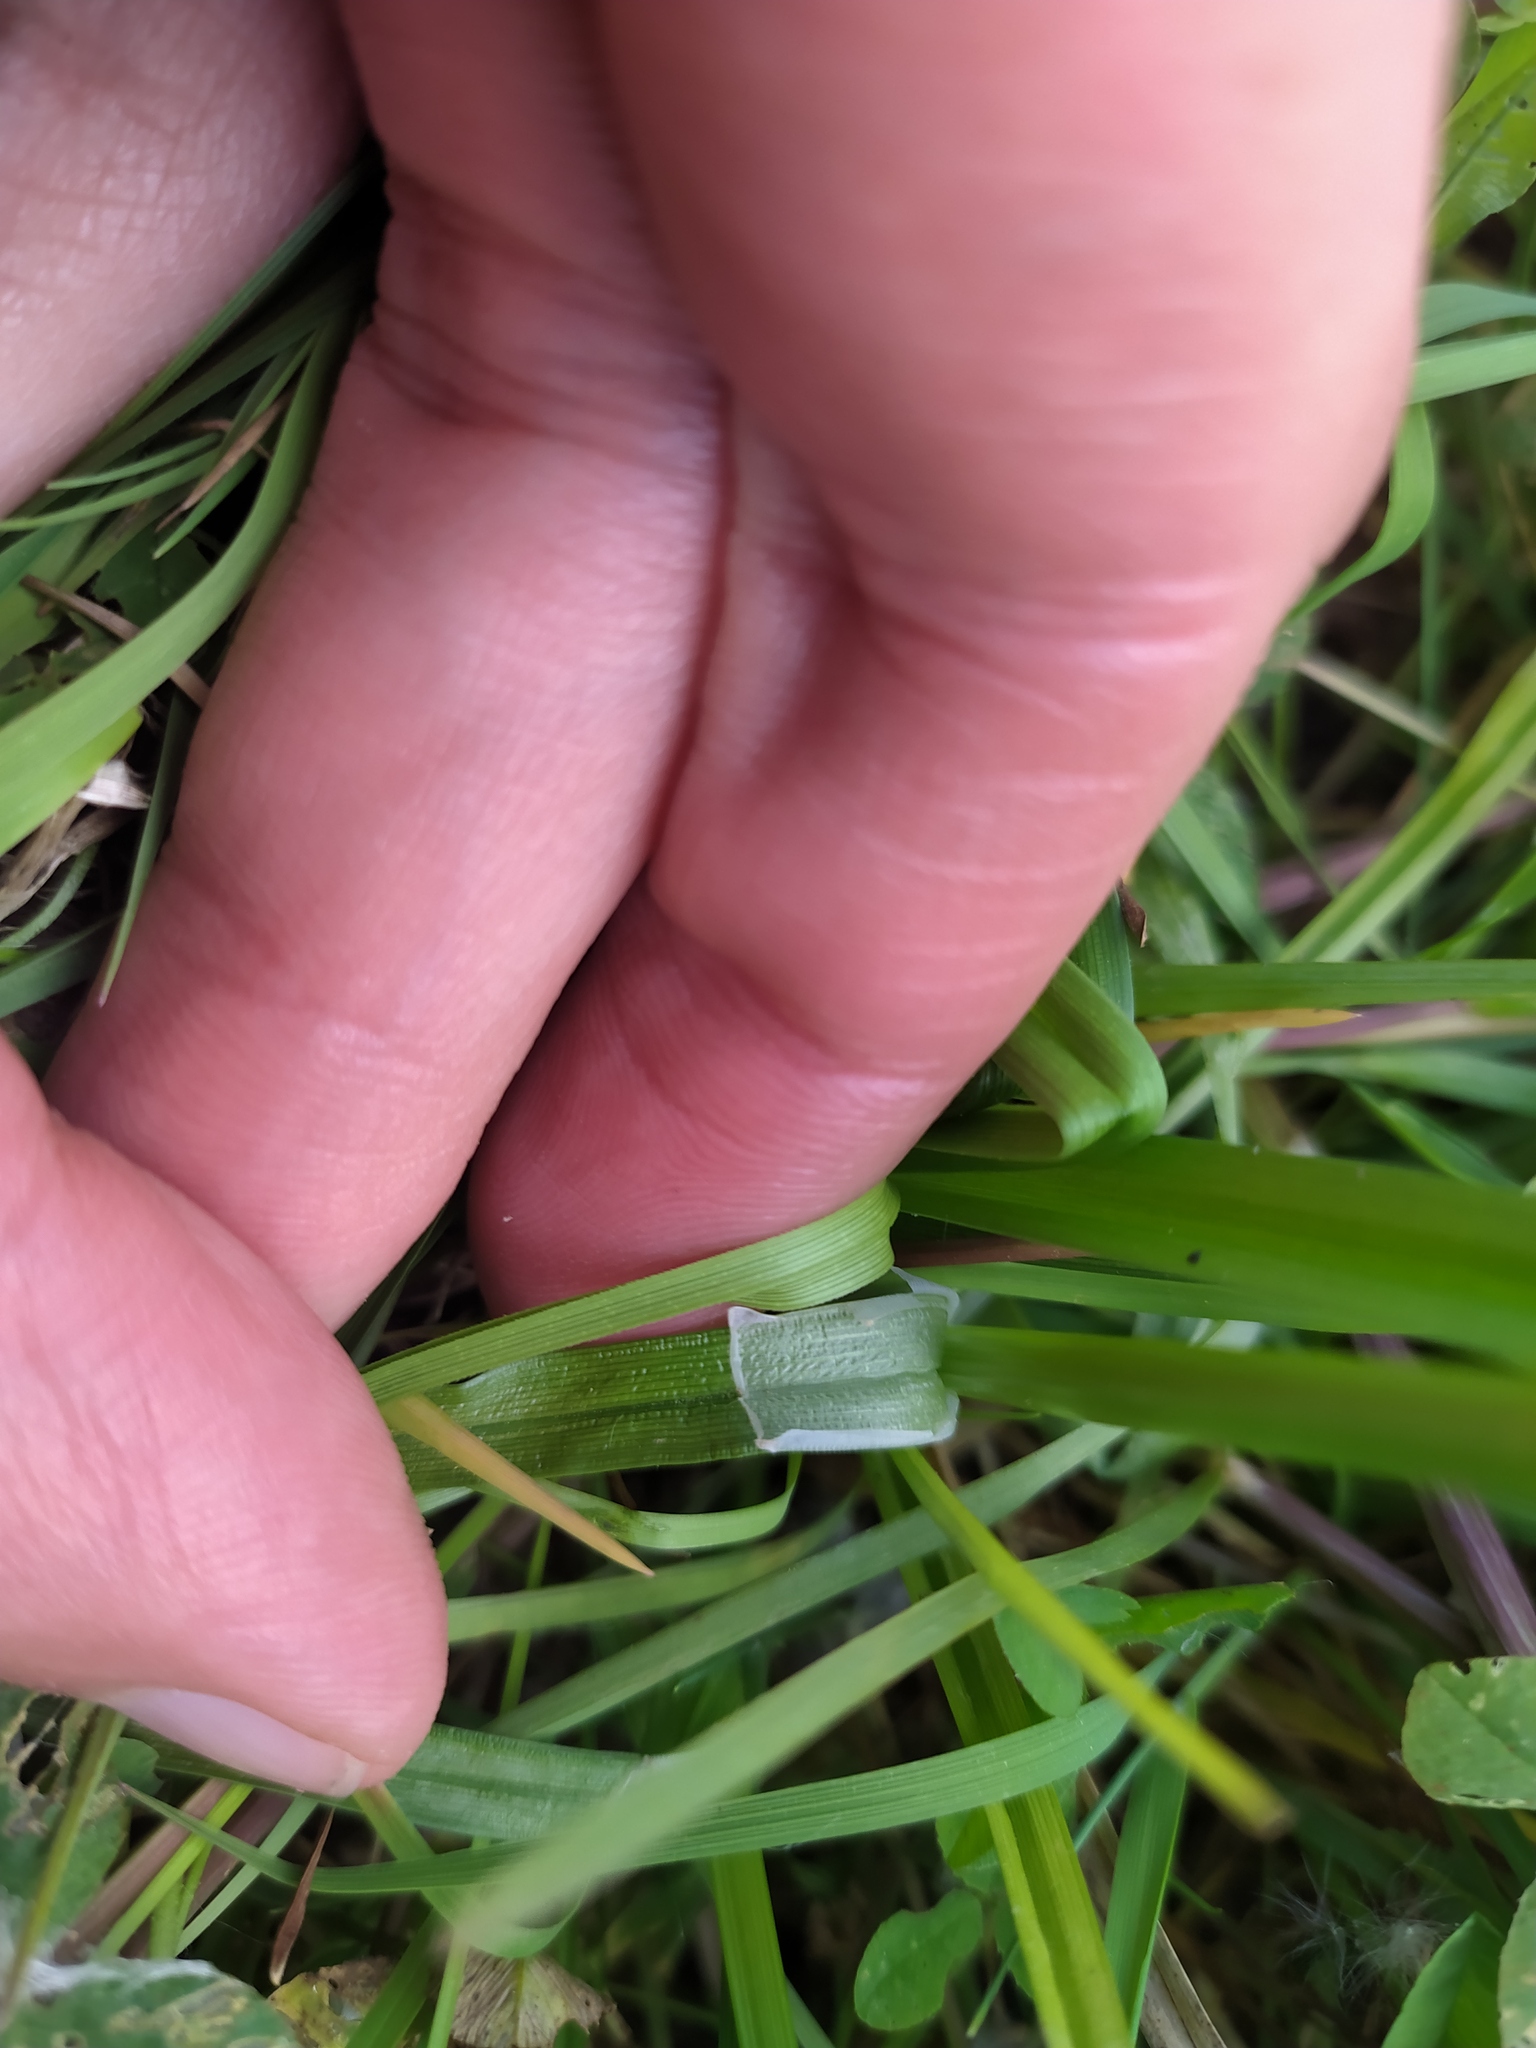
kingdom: Plantae
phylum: Tracheophyta
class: Liliopsida
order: Poales
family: Cyperaceae
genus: Carex
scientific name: Carex vulpina
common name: True fox-sedge
